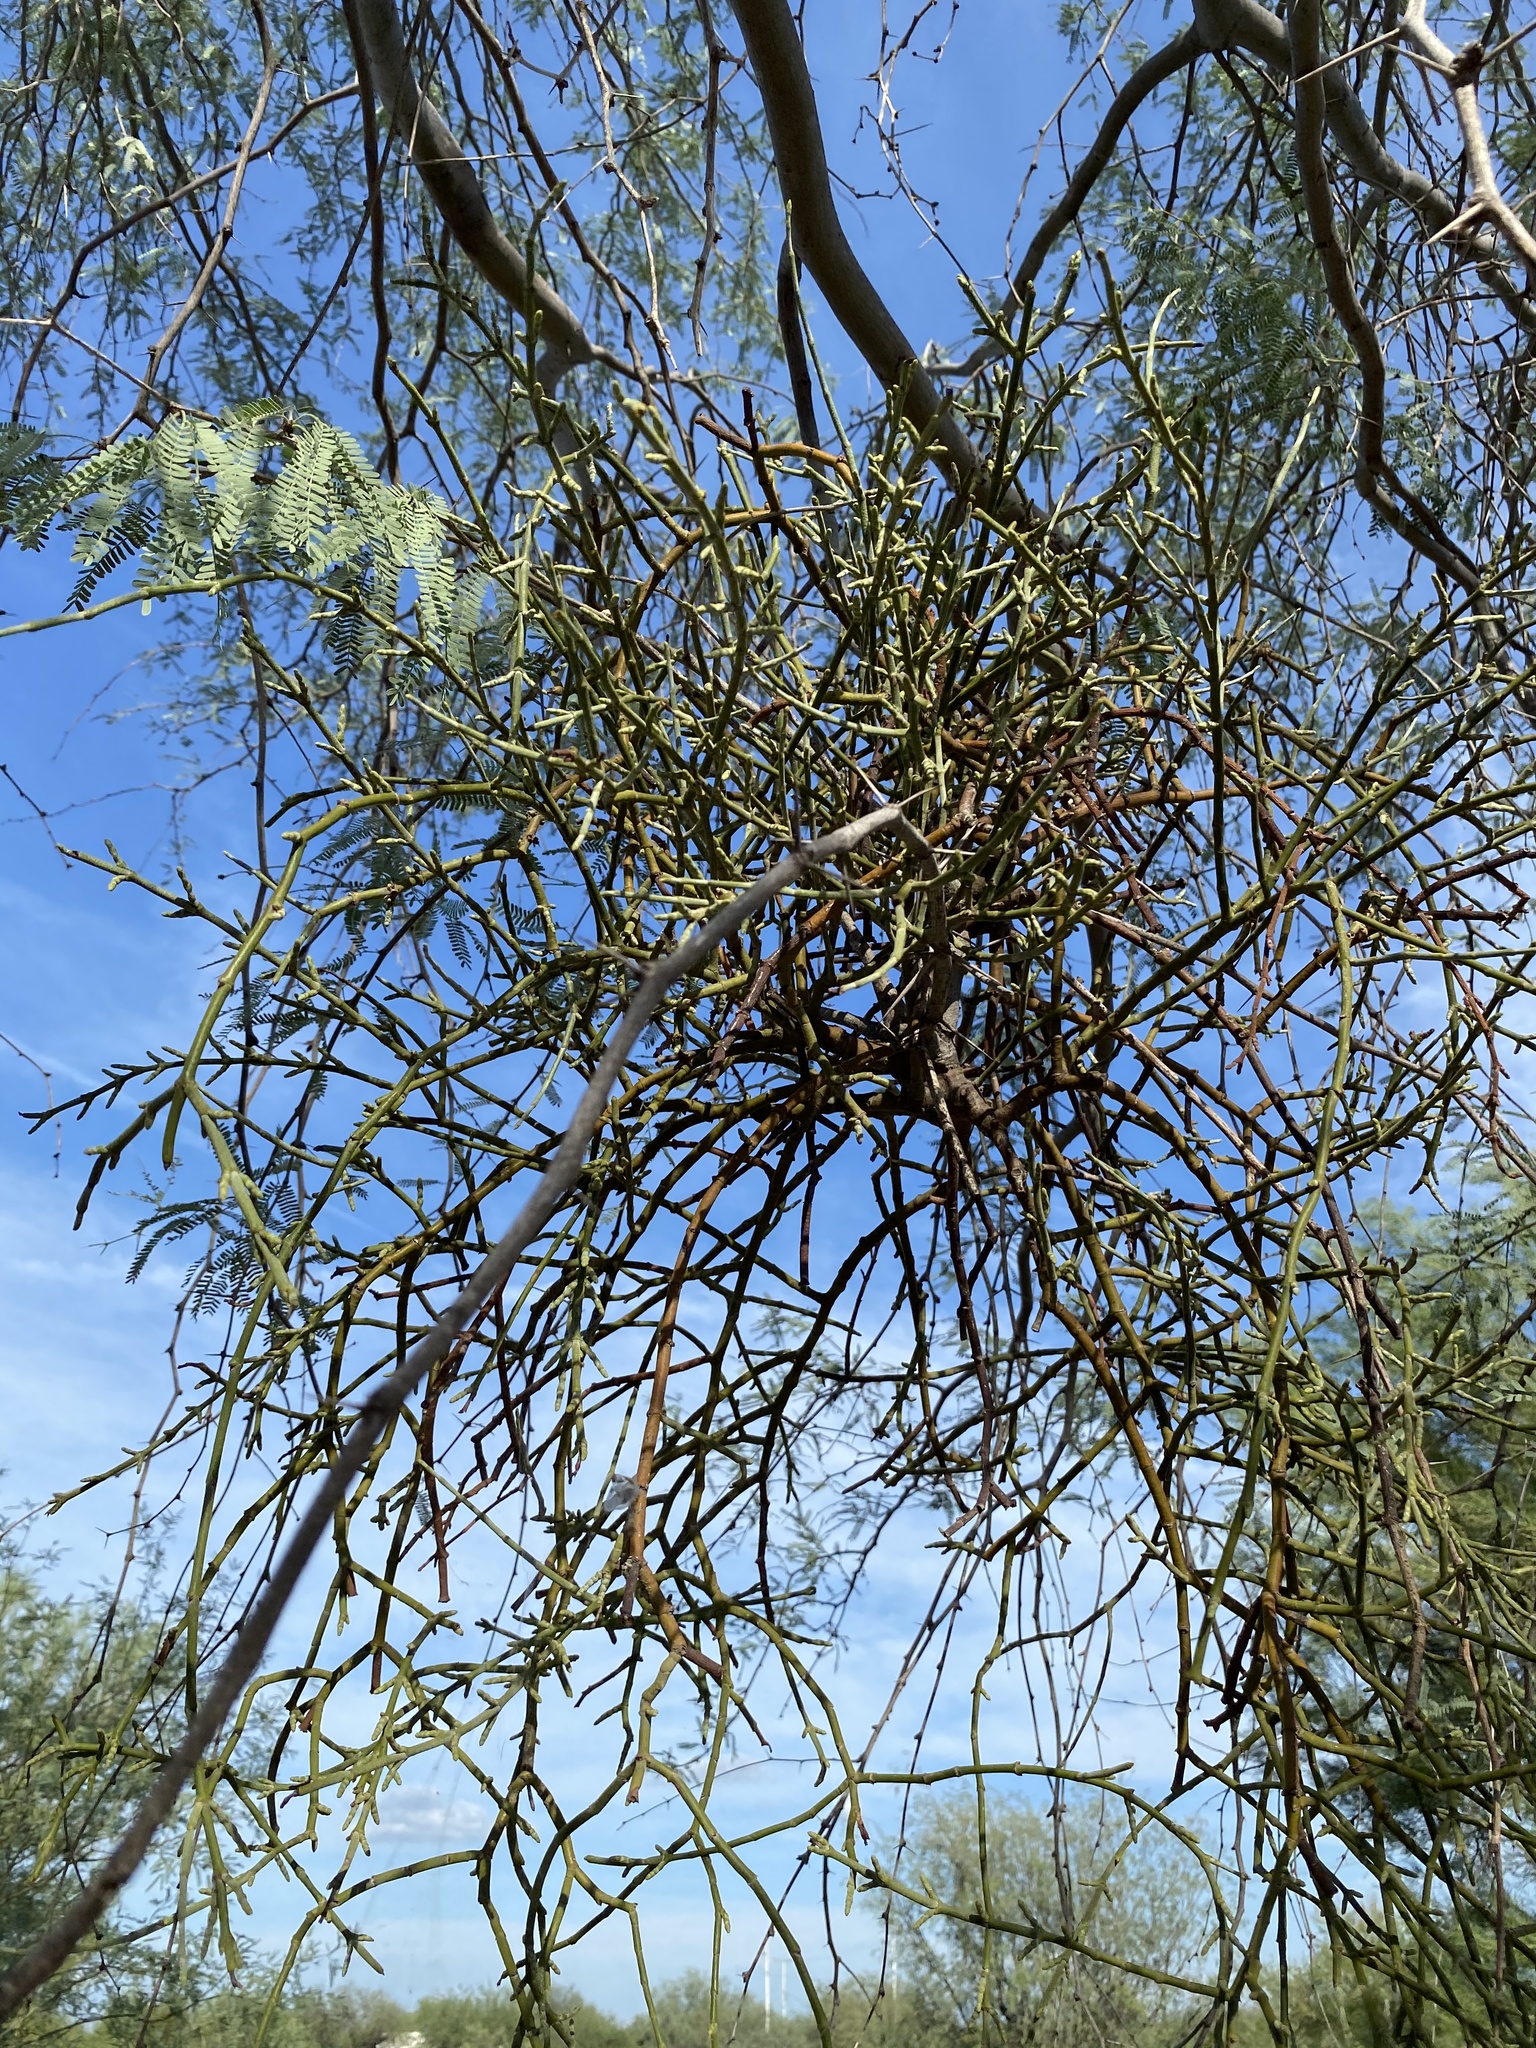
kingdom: Plantae
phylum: Tracheophyta
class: Magnoliopsida
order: Santalales
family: Viscaceae
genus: Phoradendron
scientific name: Phoradendron californicum
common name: Acacia mistletoe
